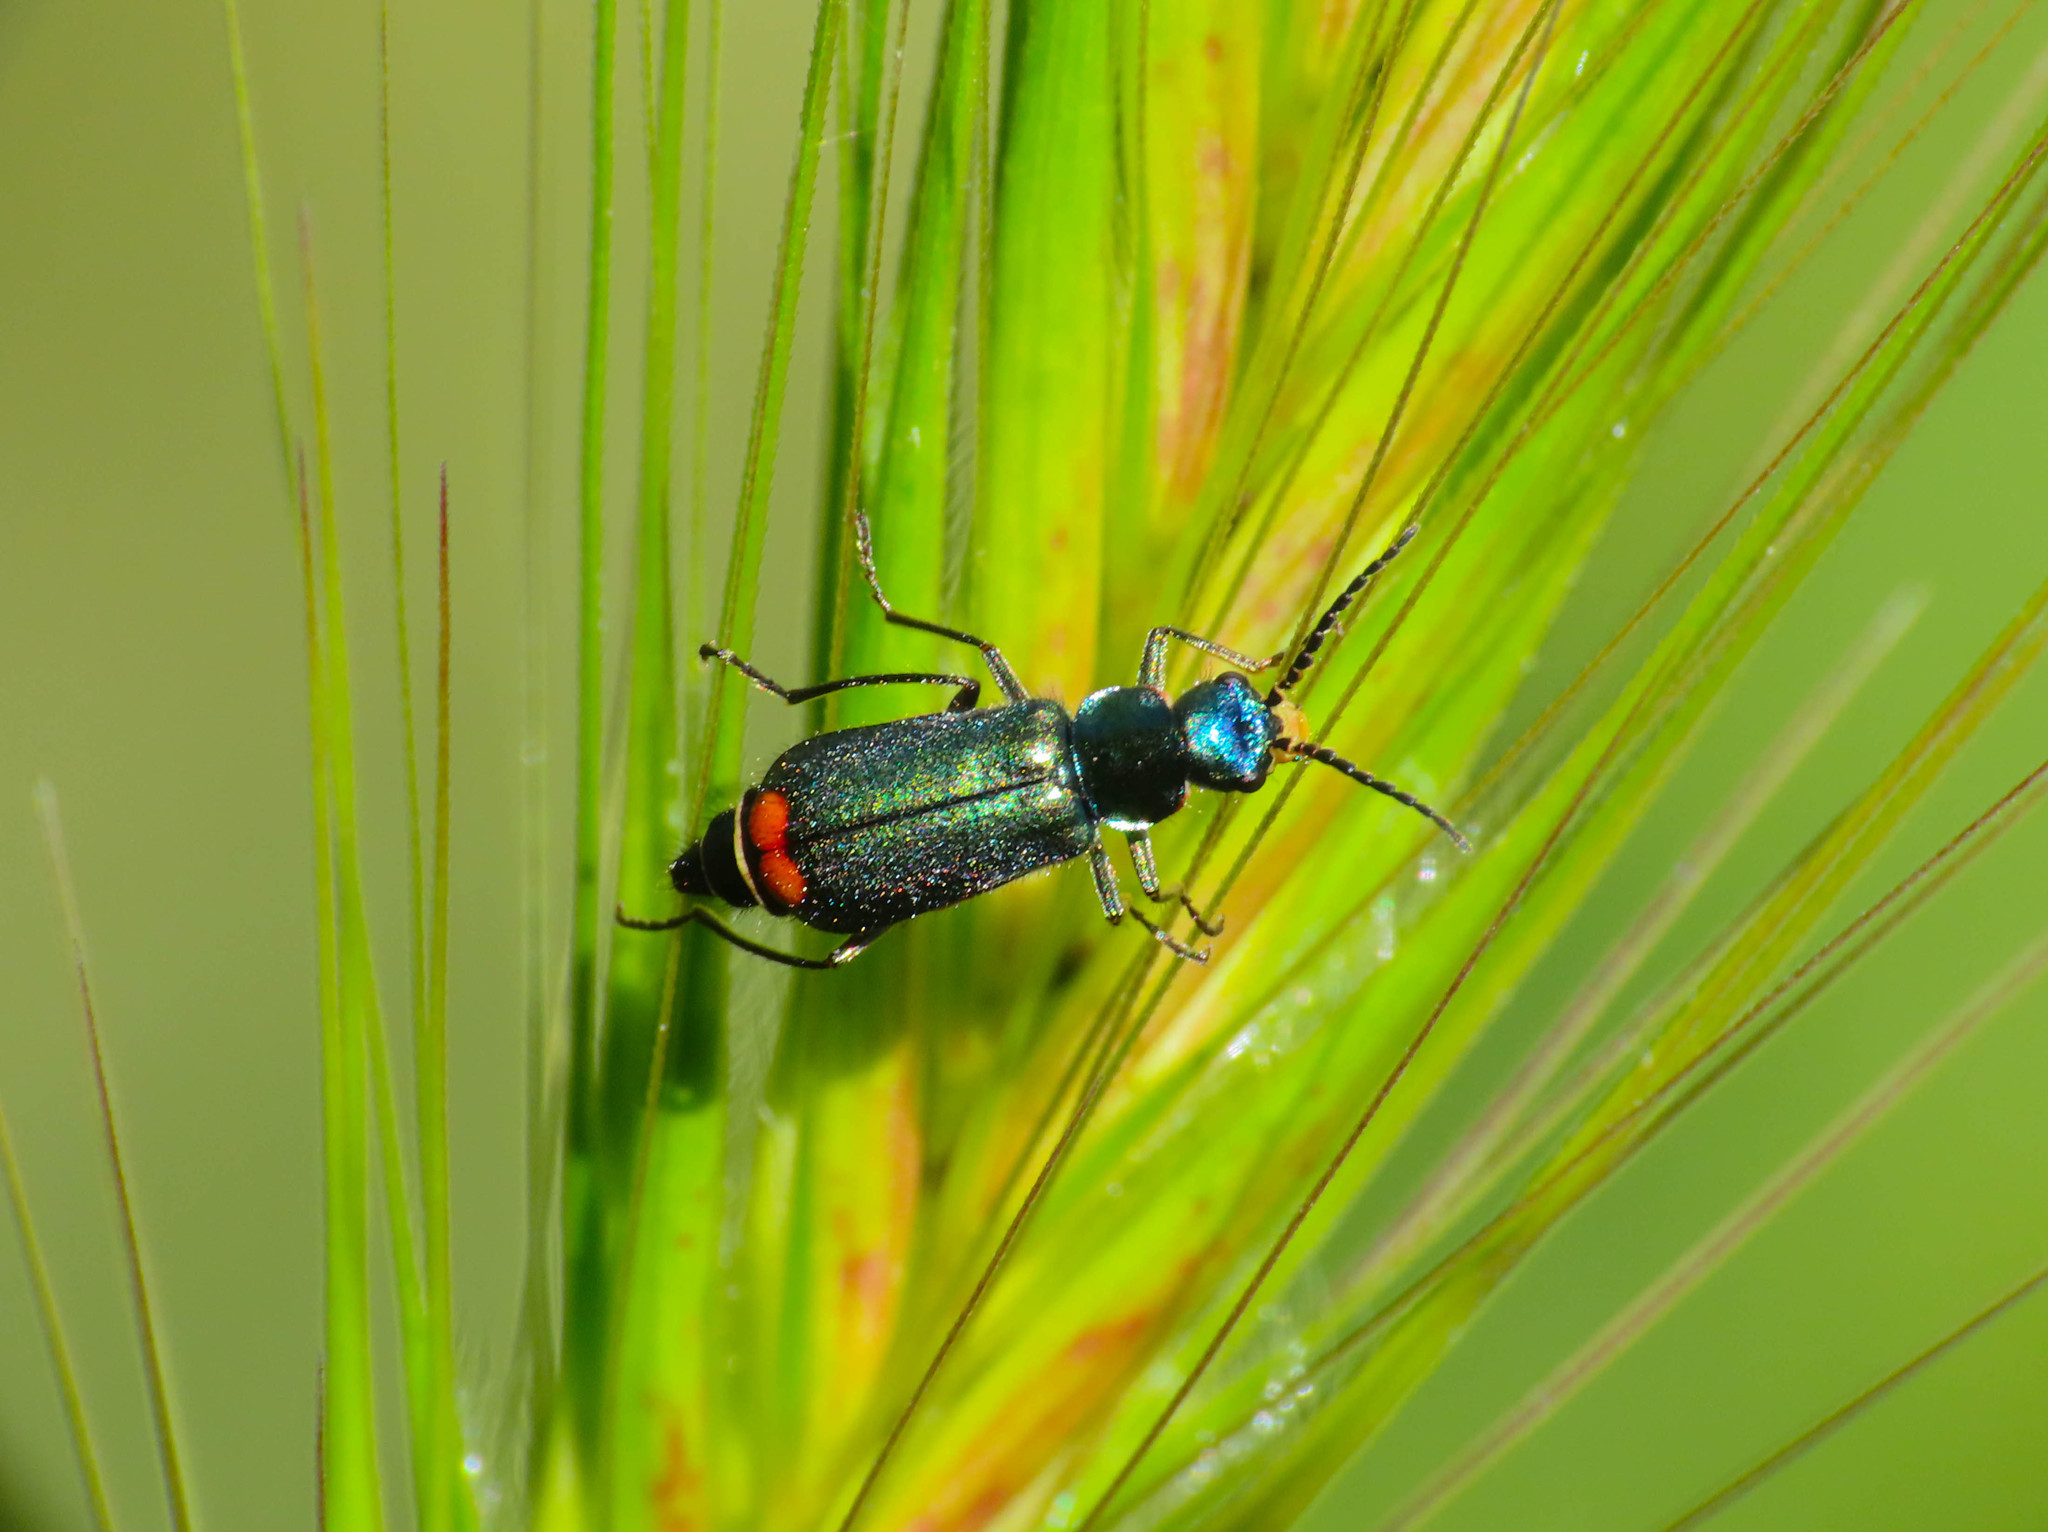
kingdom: Animalia
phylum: Arthropoda
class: Insecta
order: Coleoptera
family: Melyridae
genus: Malachius
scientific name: Malachius australis
